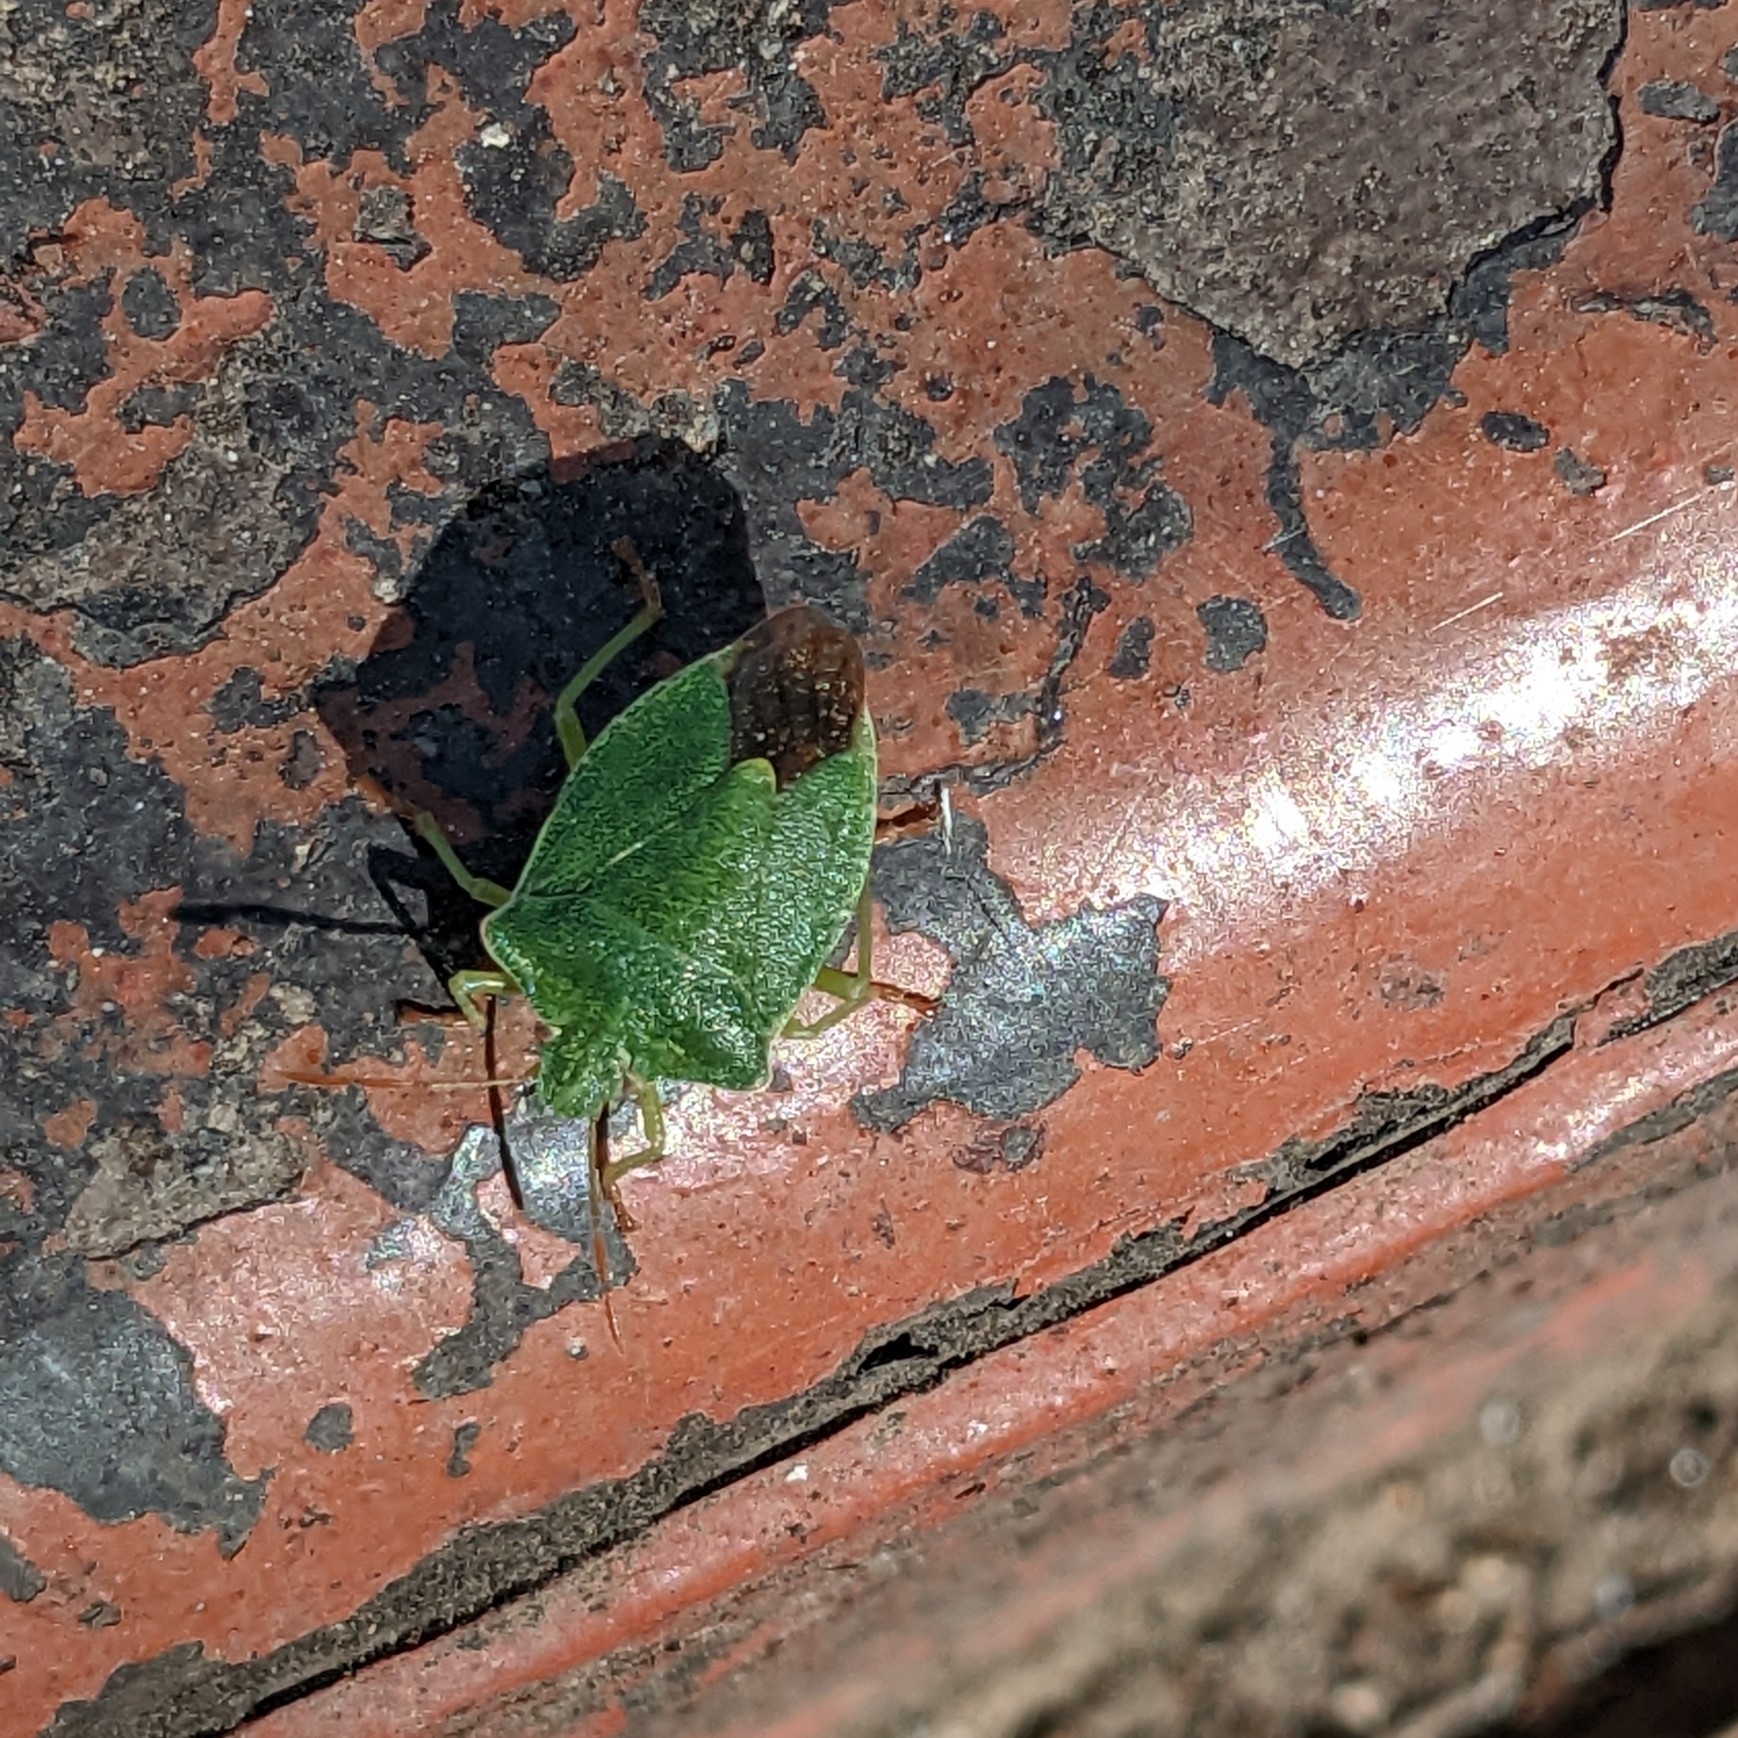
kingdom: Animalia
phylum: Arthropoda
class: Insecta
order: Hemiptera
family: Pentatomidae
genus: Palomena
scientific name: Palomena formosa
